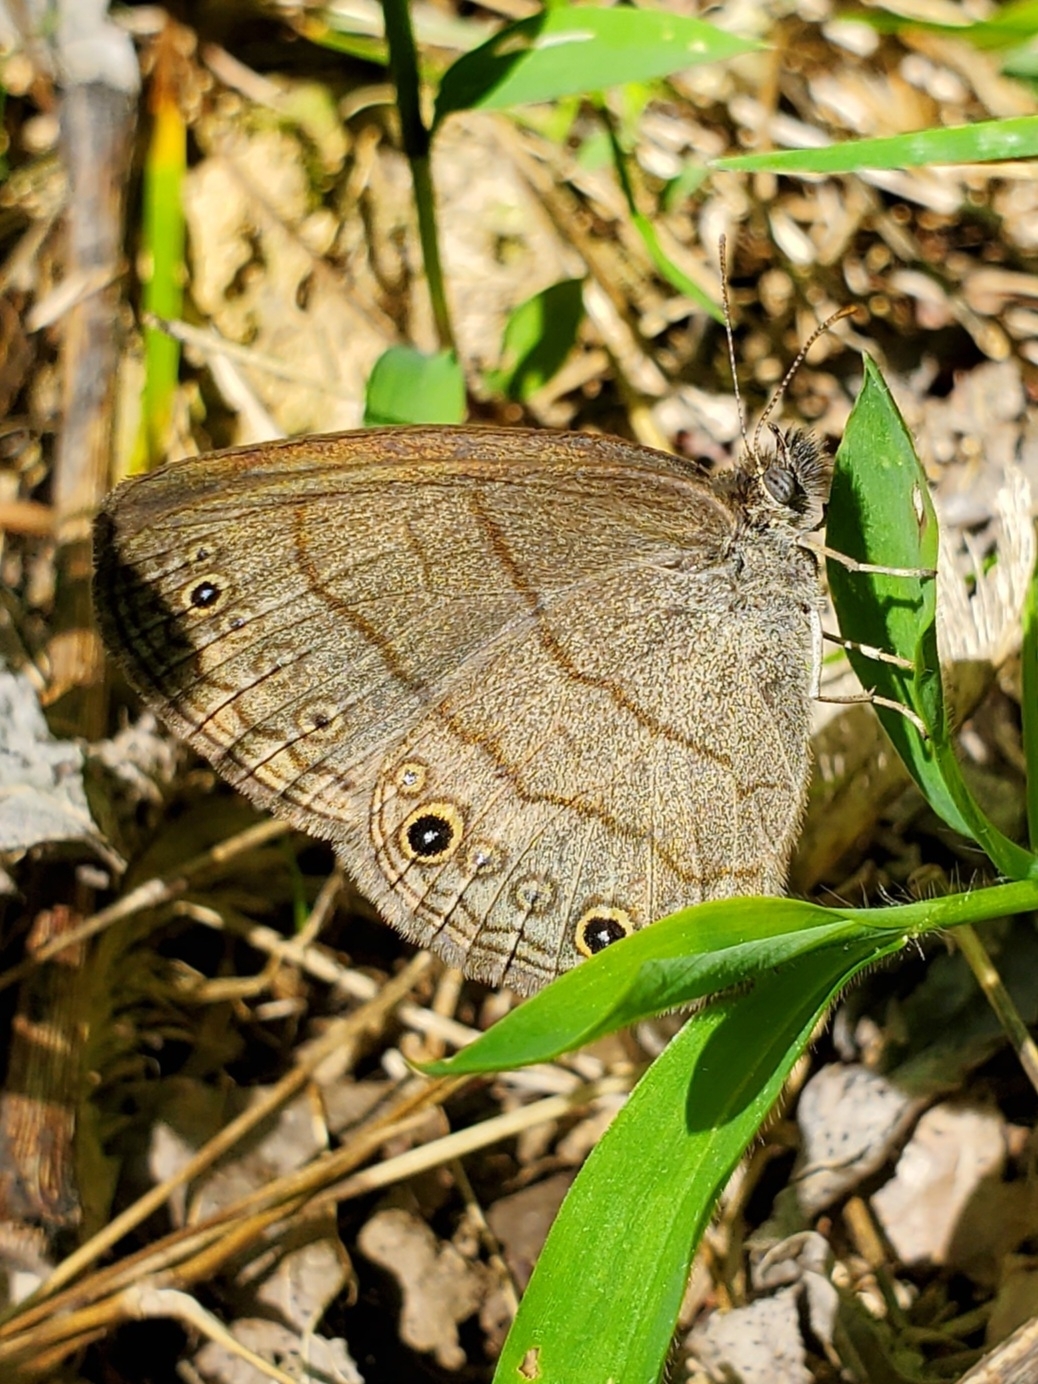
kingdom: Animalia
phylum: Arthropoda
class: Insecta
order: Lepidoptera
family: Nymphalidae
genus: Hermeuptychia
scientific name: Hermeuptychia hermes
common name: Hermes satyr
